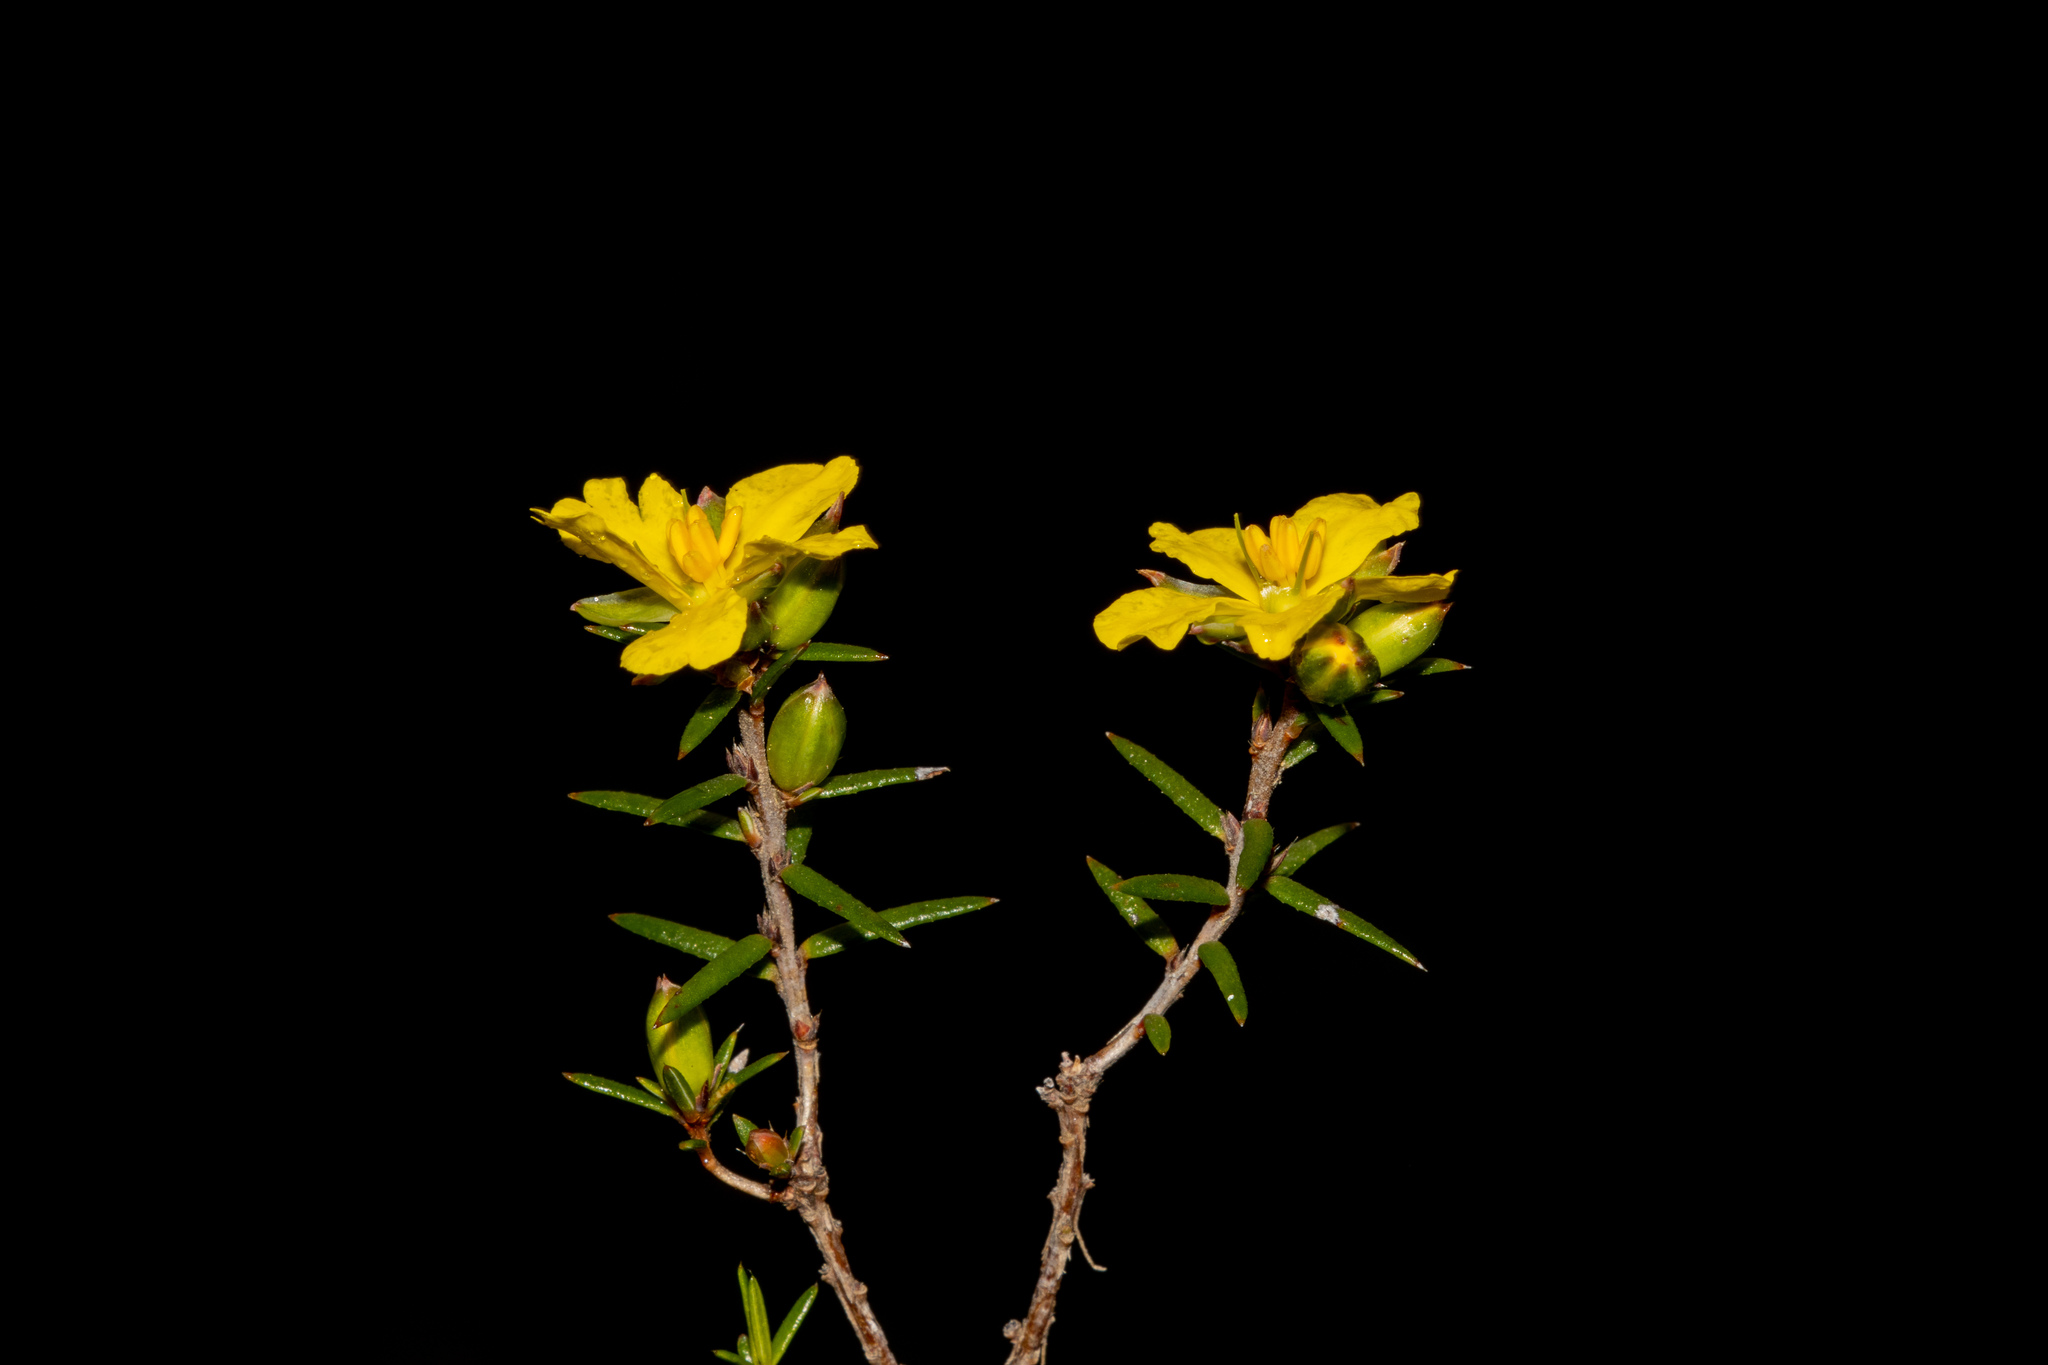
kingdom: Plantae
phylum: Tracheophyta
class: Magnoliopsida
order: Dilleniales
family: Dilleniaceae
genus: Hibbertia
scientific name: Hibbertia exutiacies
